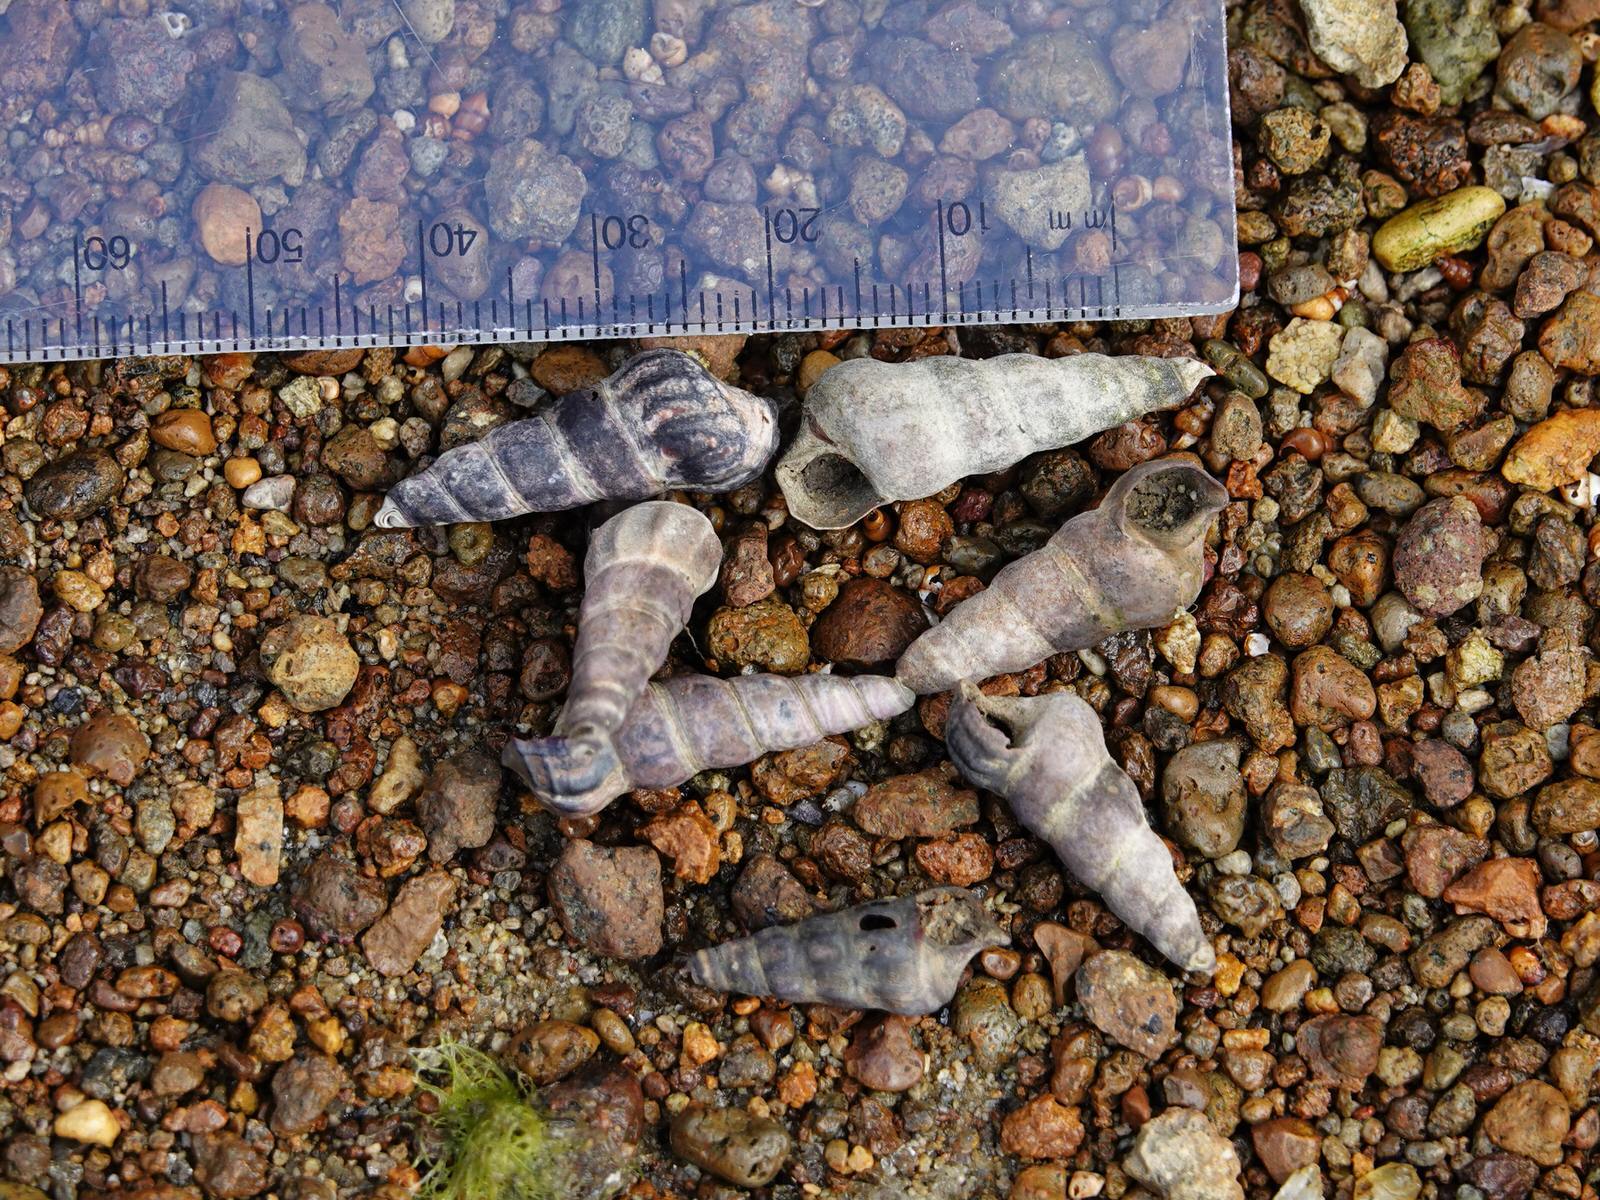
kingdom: Animalia
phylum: Mollusca
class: Gastropoda
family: Batillariidae
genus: Zeacumantus
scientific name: Zeacumantus lutulentus
